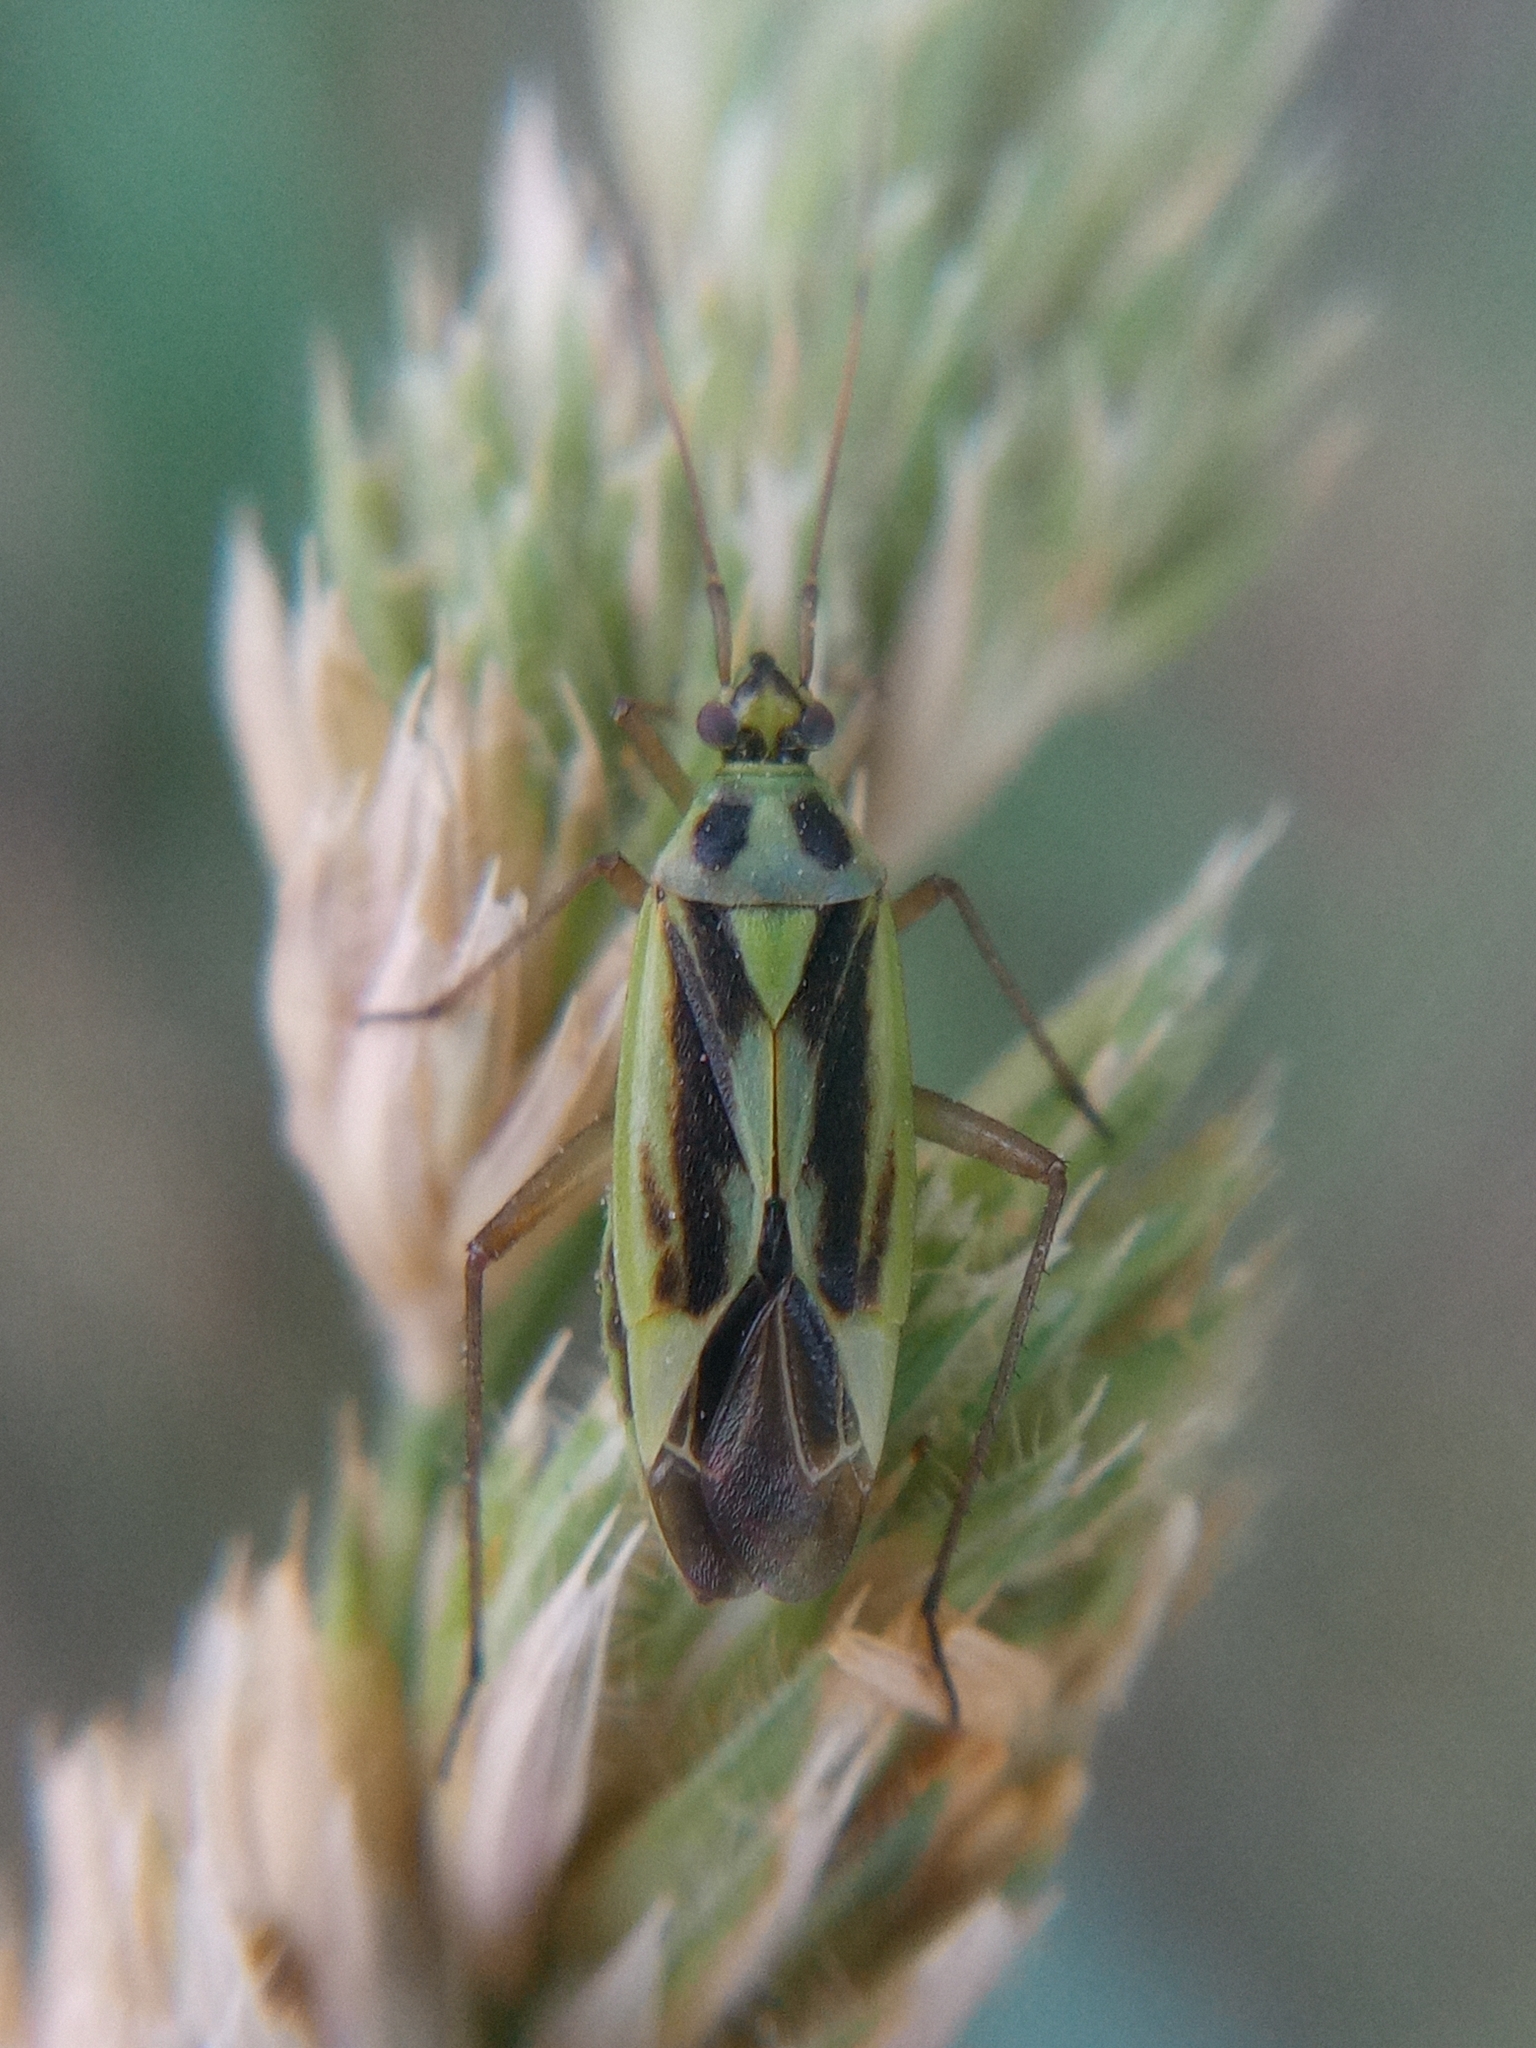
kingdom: Animalia
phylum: Arthropoda
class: Insecta
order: Hemiptera
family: Miridae
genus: Stenotus
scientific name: Stenotus binotatus
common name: Plant bug
